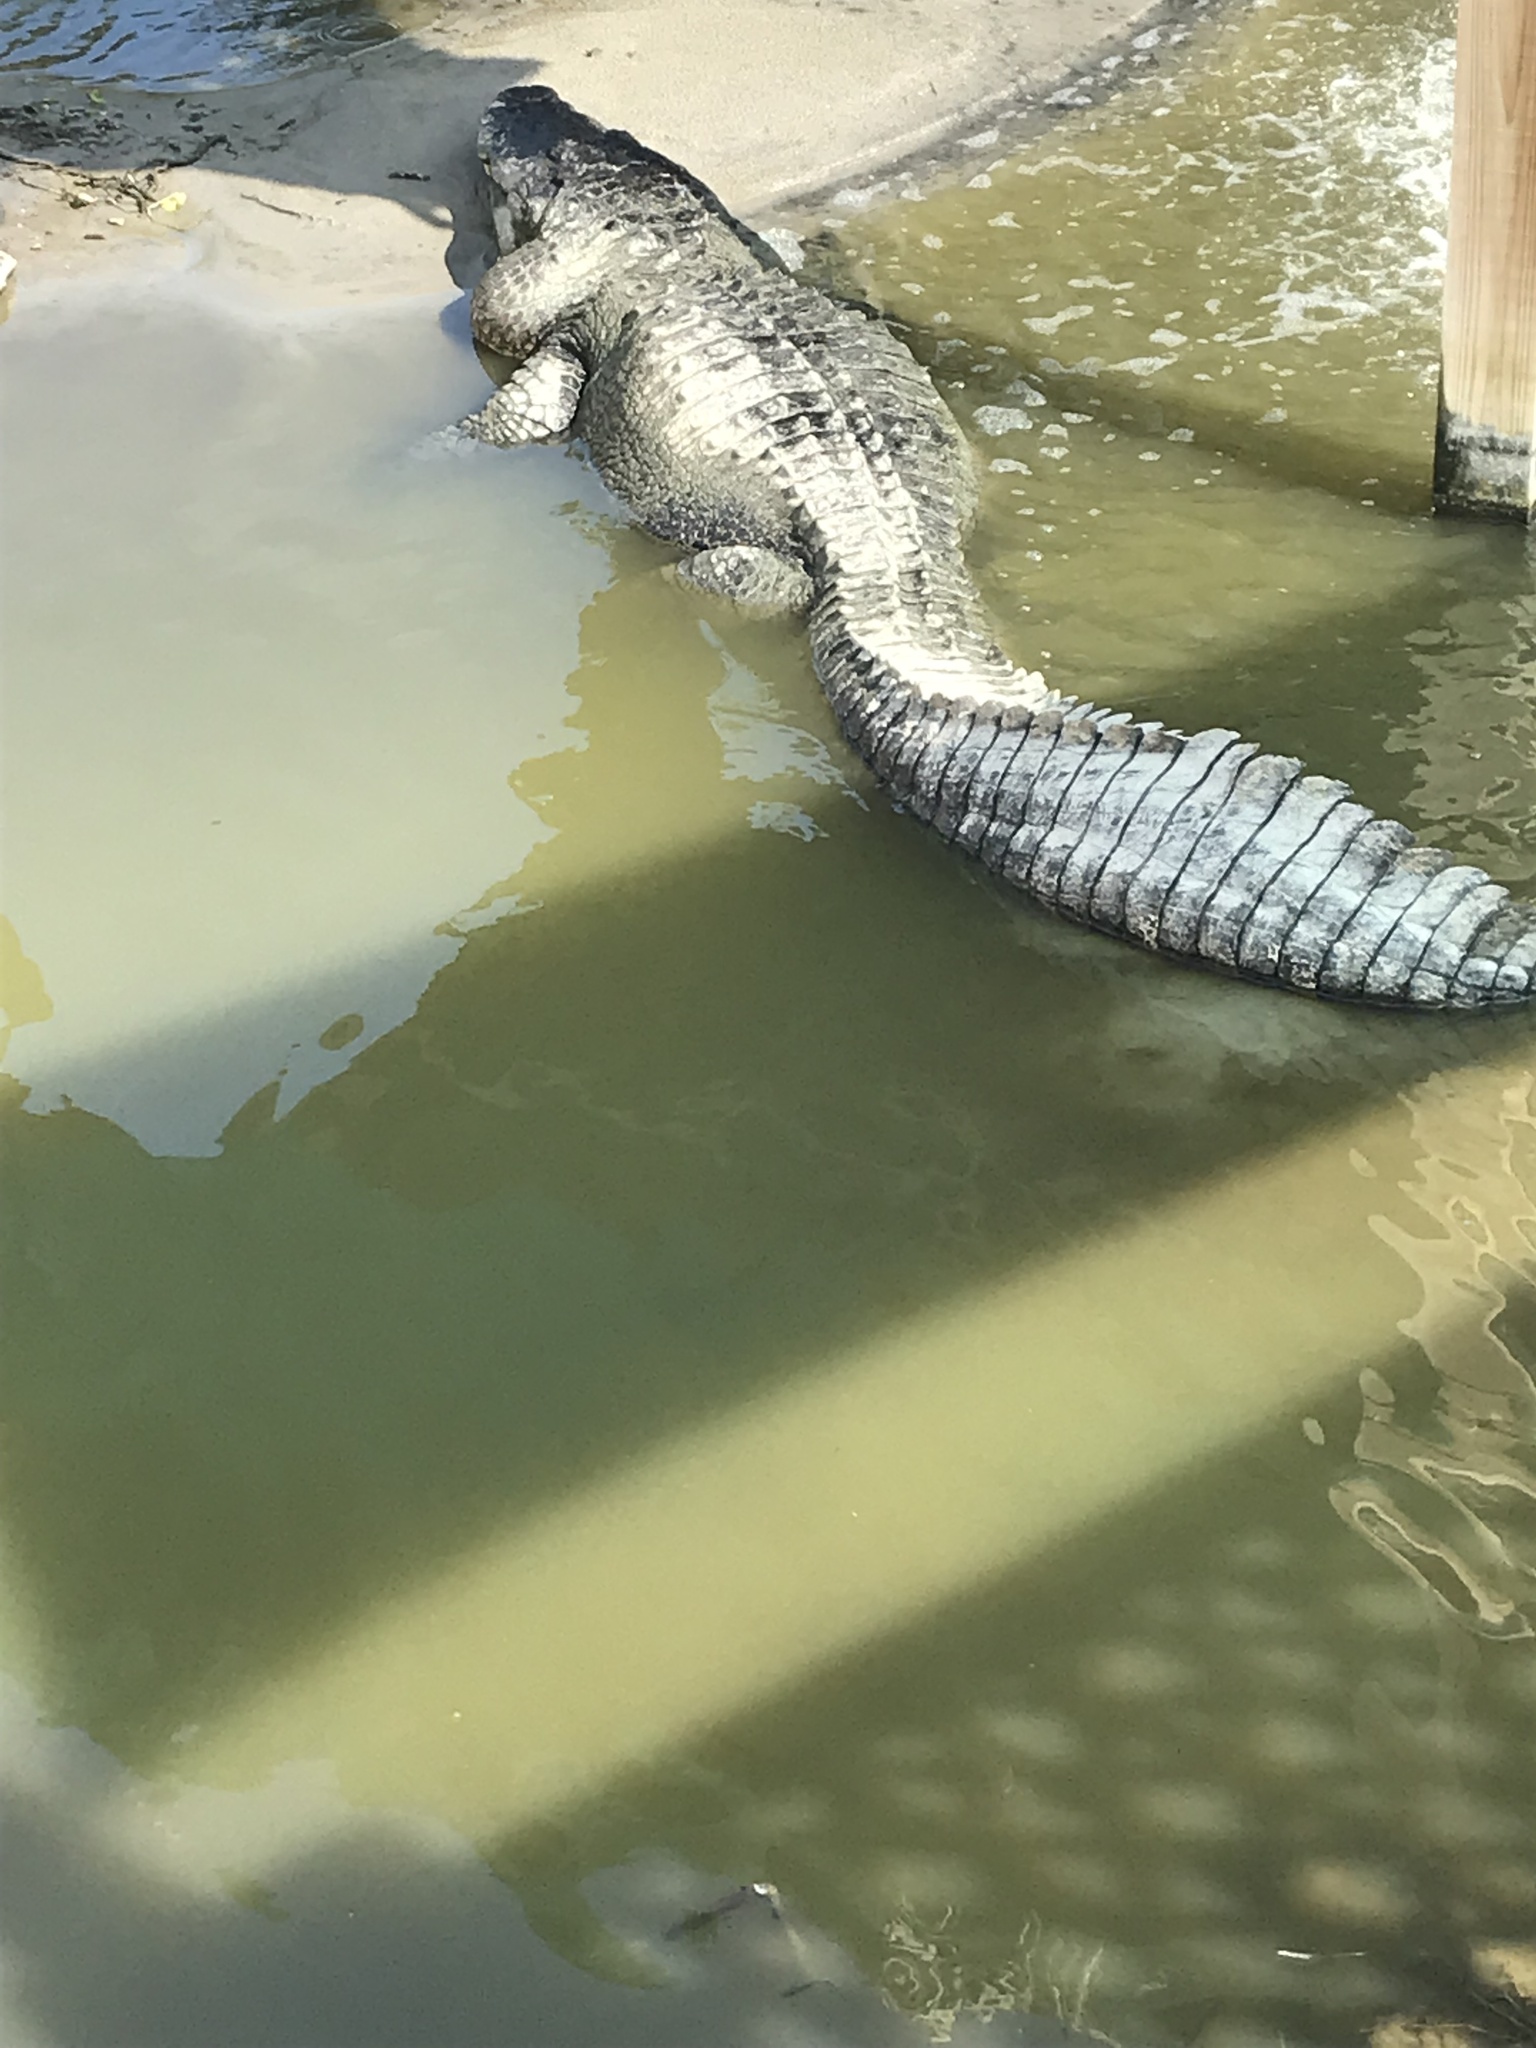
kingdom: Animalia
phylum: Chordata
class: Crocodylia
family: Alligatoridae
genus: Alligator
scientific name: Alligator mississippiensis
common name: American alligator
